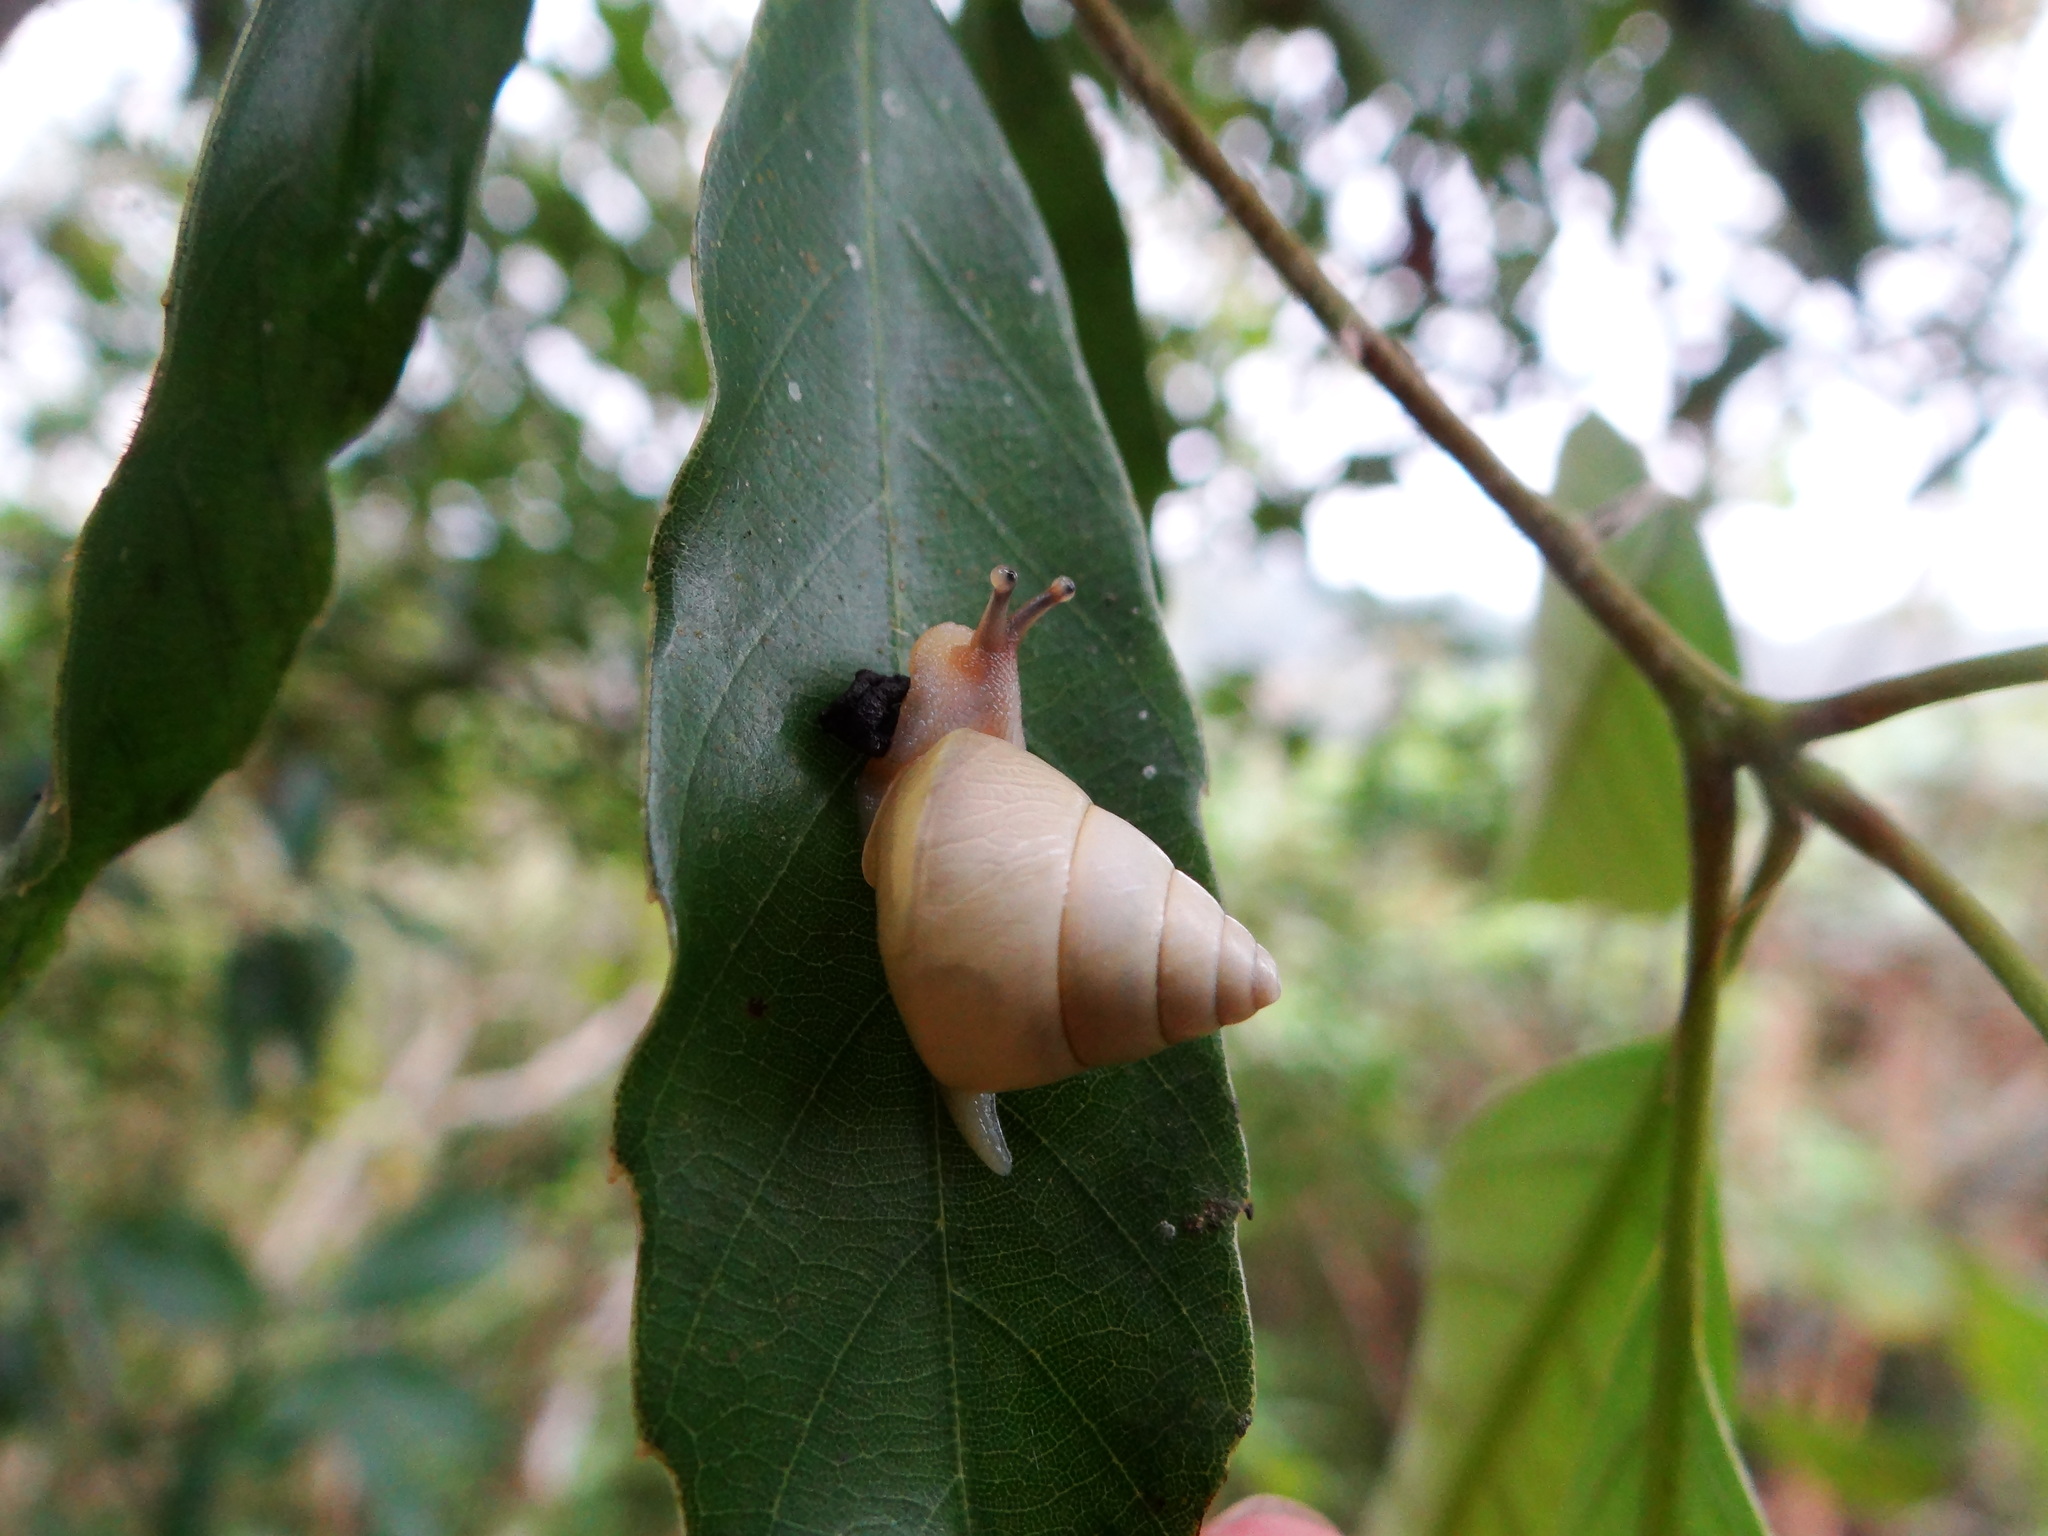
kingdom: Animalia
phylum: Mollusca
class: Gastropoda
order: Stylommatophora
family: Camaenidae
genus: Satsuma
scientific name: Satsuma luteolella
